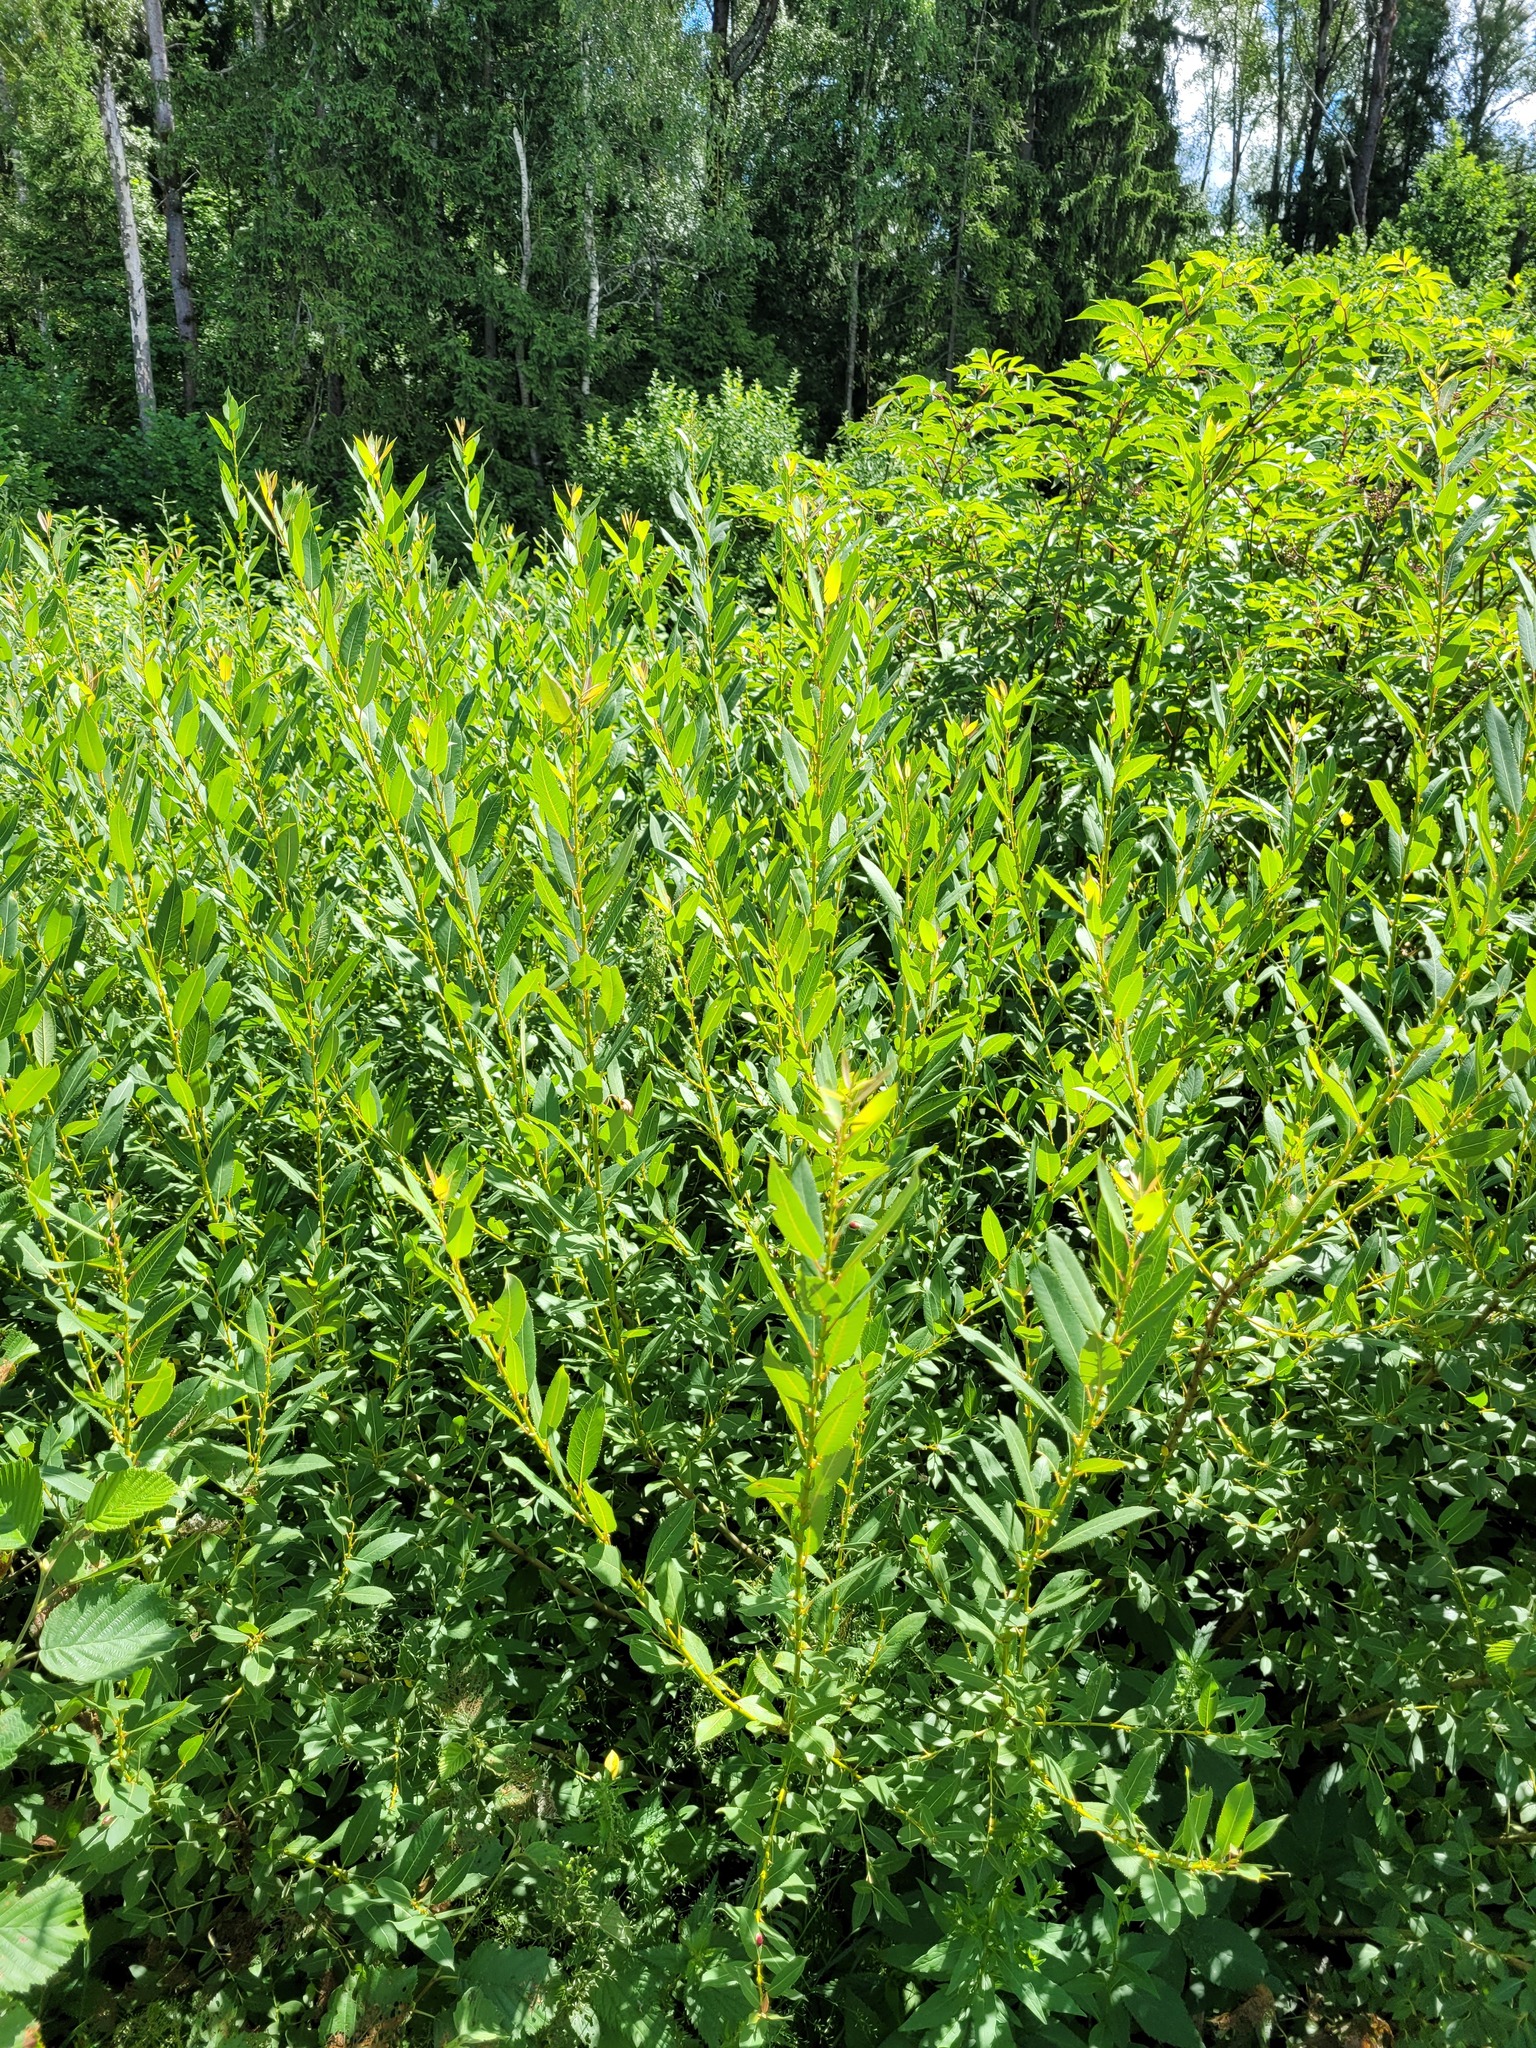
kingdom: Plantae
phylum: Tracheophyta
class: Magnoliopsida
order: Malpighiales
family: Salicaceae
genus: Salix
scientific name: Salix triandra
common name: Almond willow
